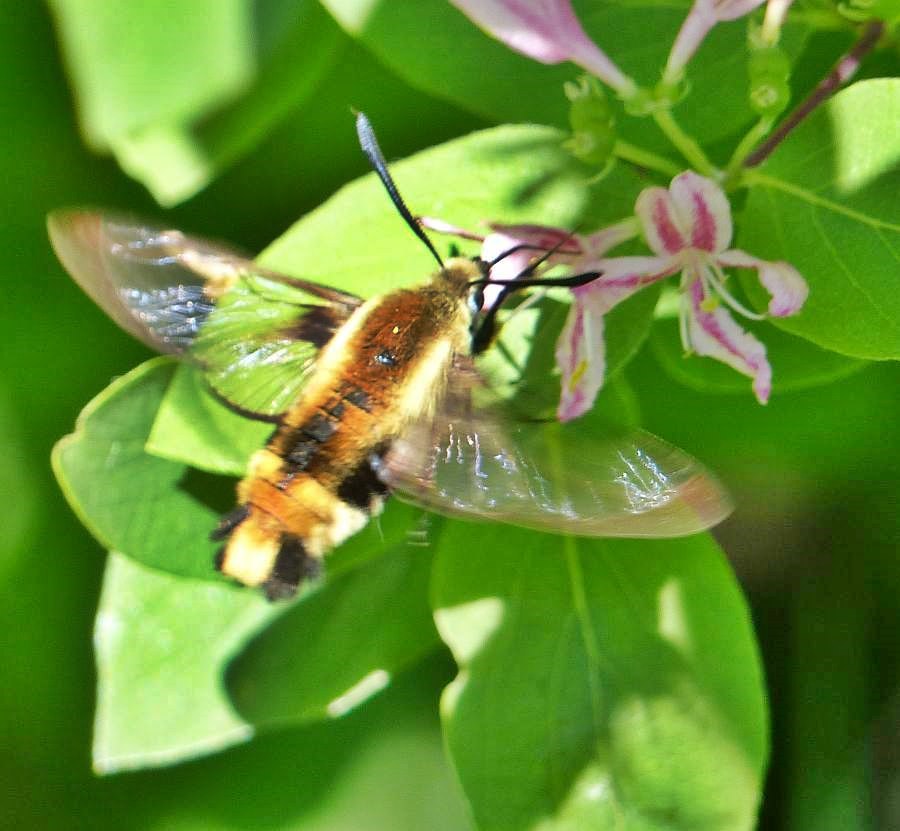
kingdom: Animalia
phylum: Arthropoda
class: Insecta
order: Lepidoptera
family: Sphingidae
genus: Hemaris
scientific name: Hemaris diffinis
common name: Bumblebee moth
